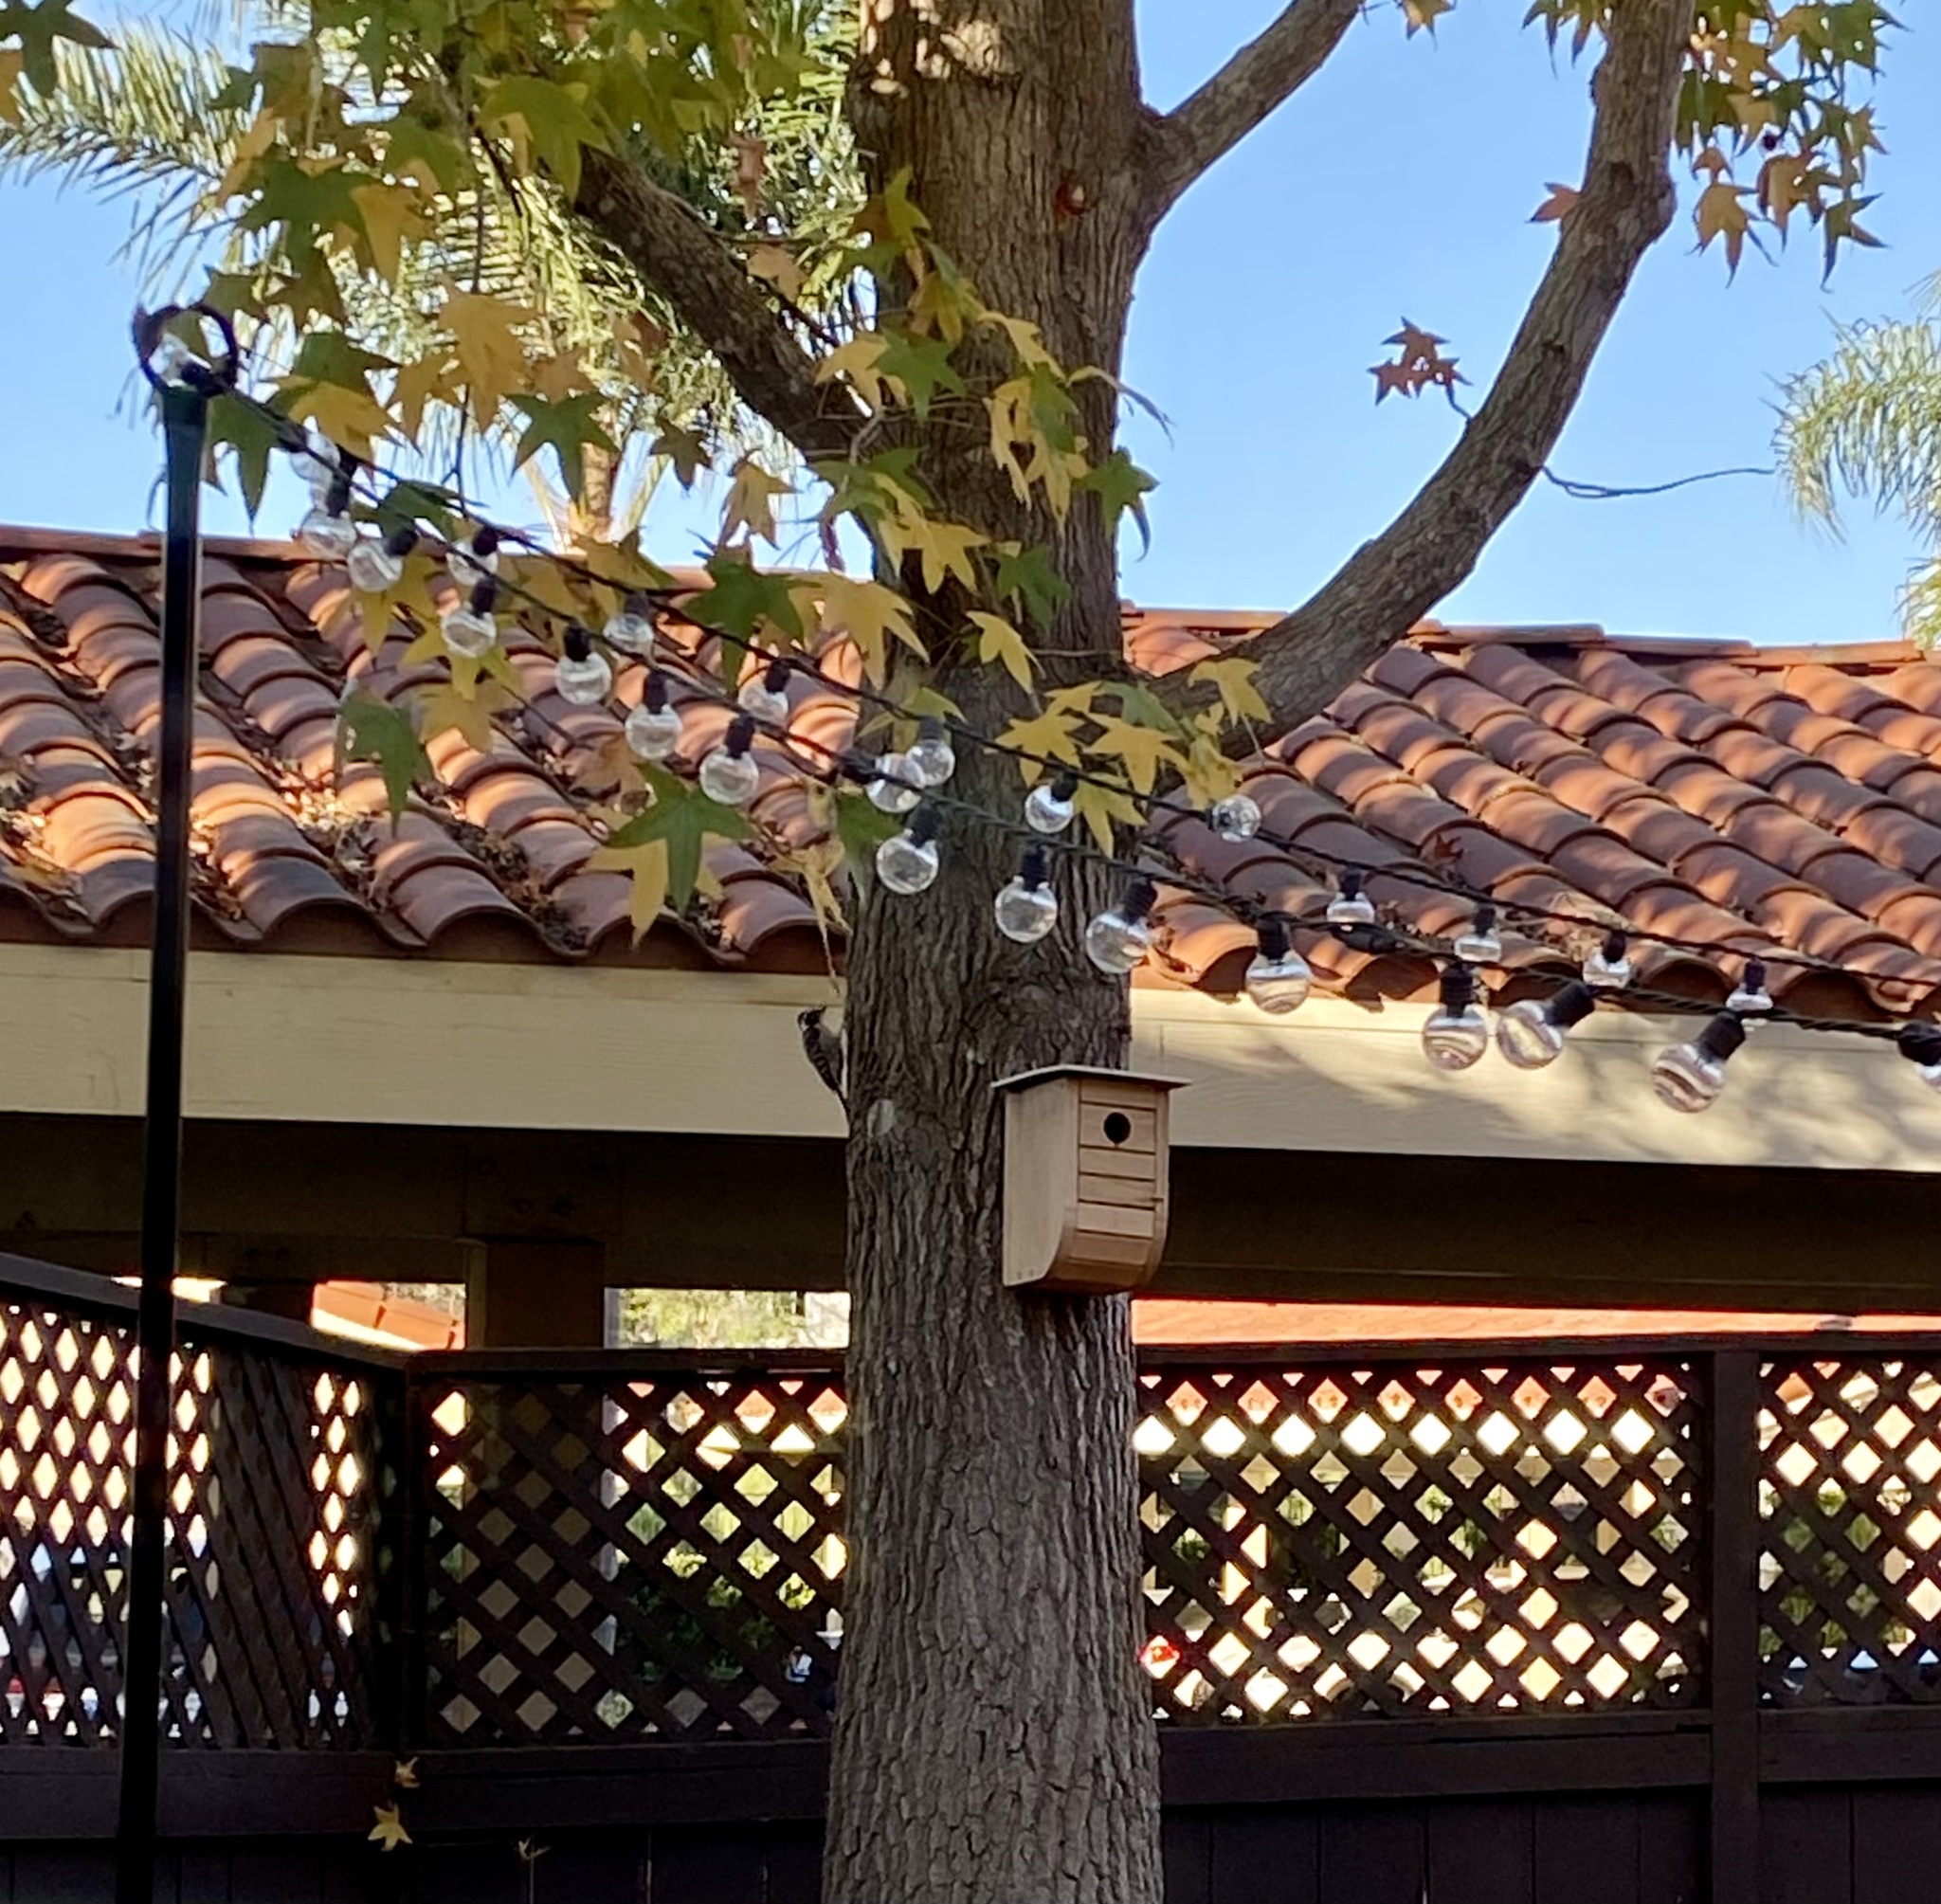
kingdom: Animalia
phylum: Chordata
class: Aves
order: Piciformes
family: Picidae
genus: Dryobates
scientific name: Dryobates nuttallii
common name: Nuttall's woodpecker
